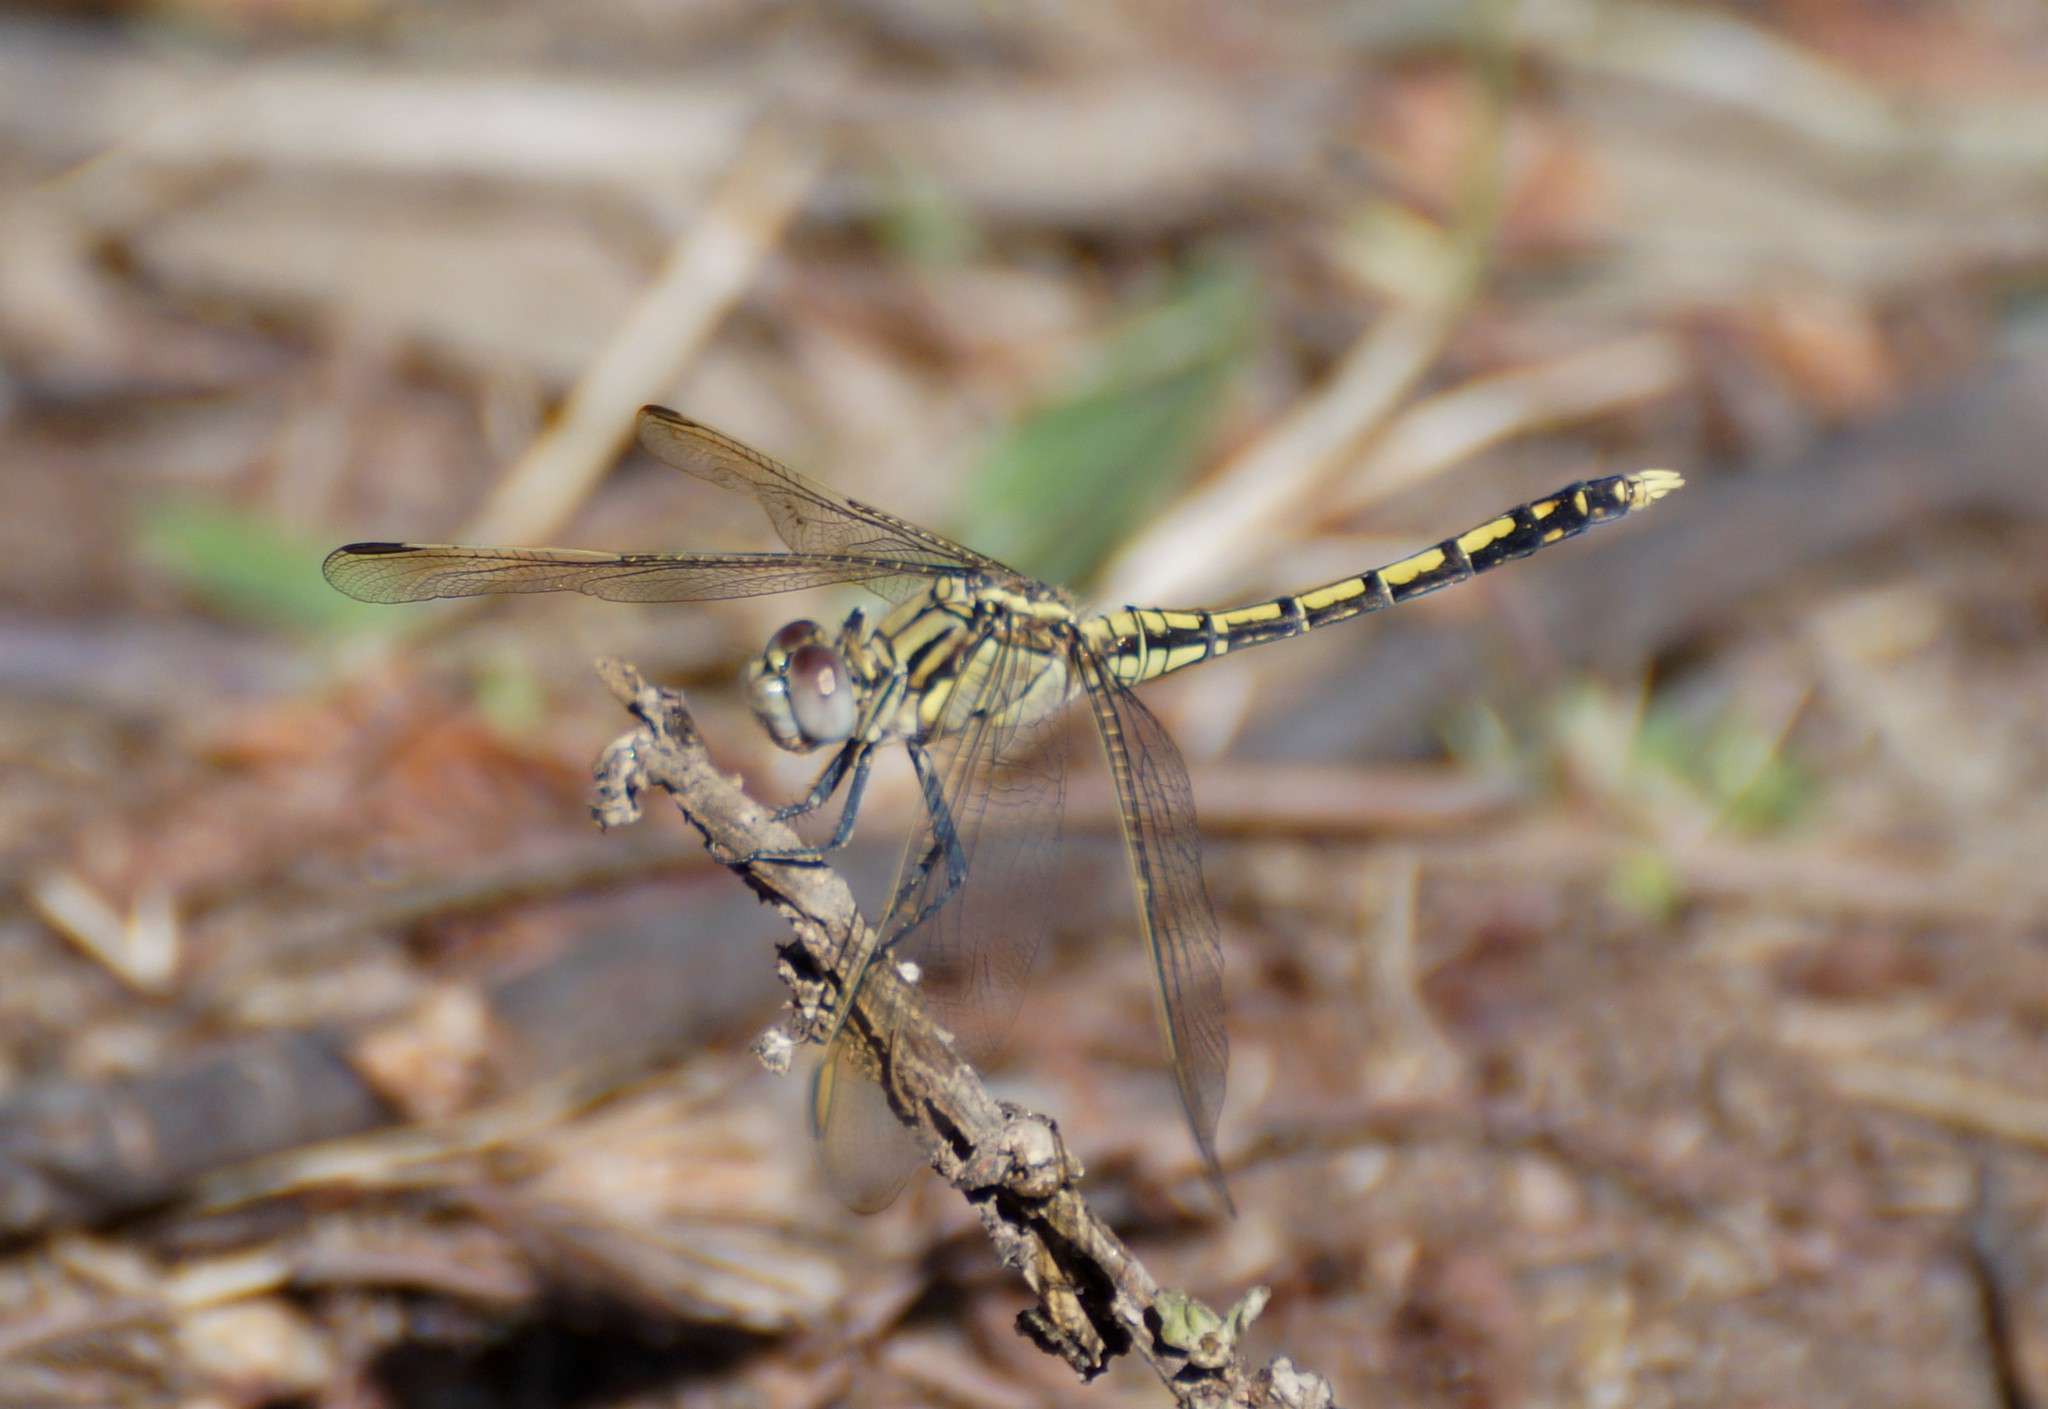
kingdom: Animalia
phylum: Arthropoda
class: Insecta
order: Odonata
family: Libellulidae
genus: Orthetrum
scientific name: Orthetrum caledonicum
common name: Blue skimmer
